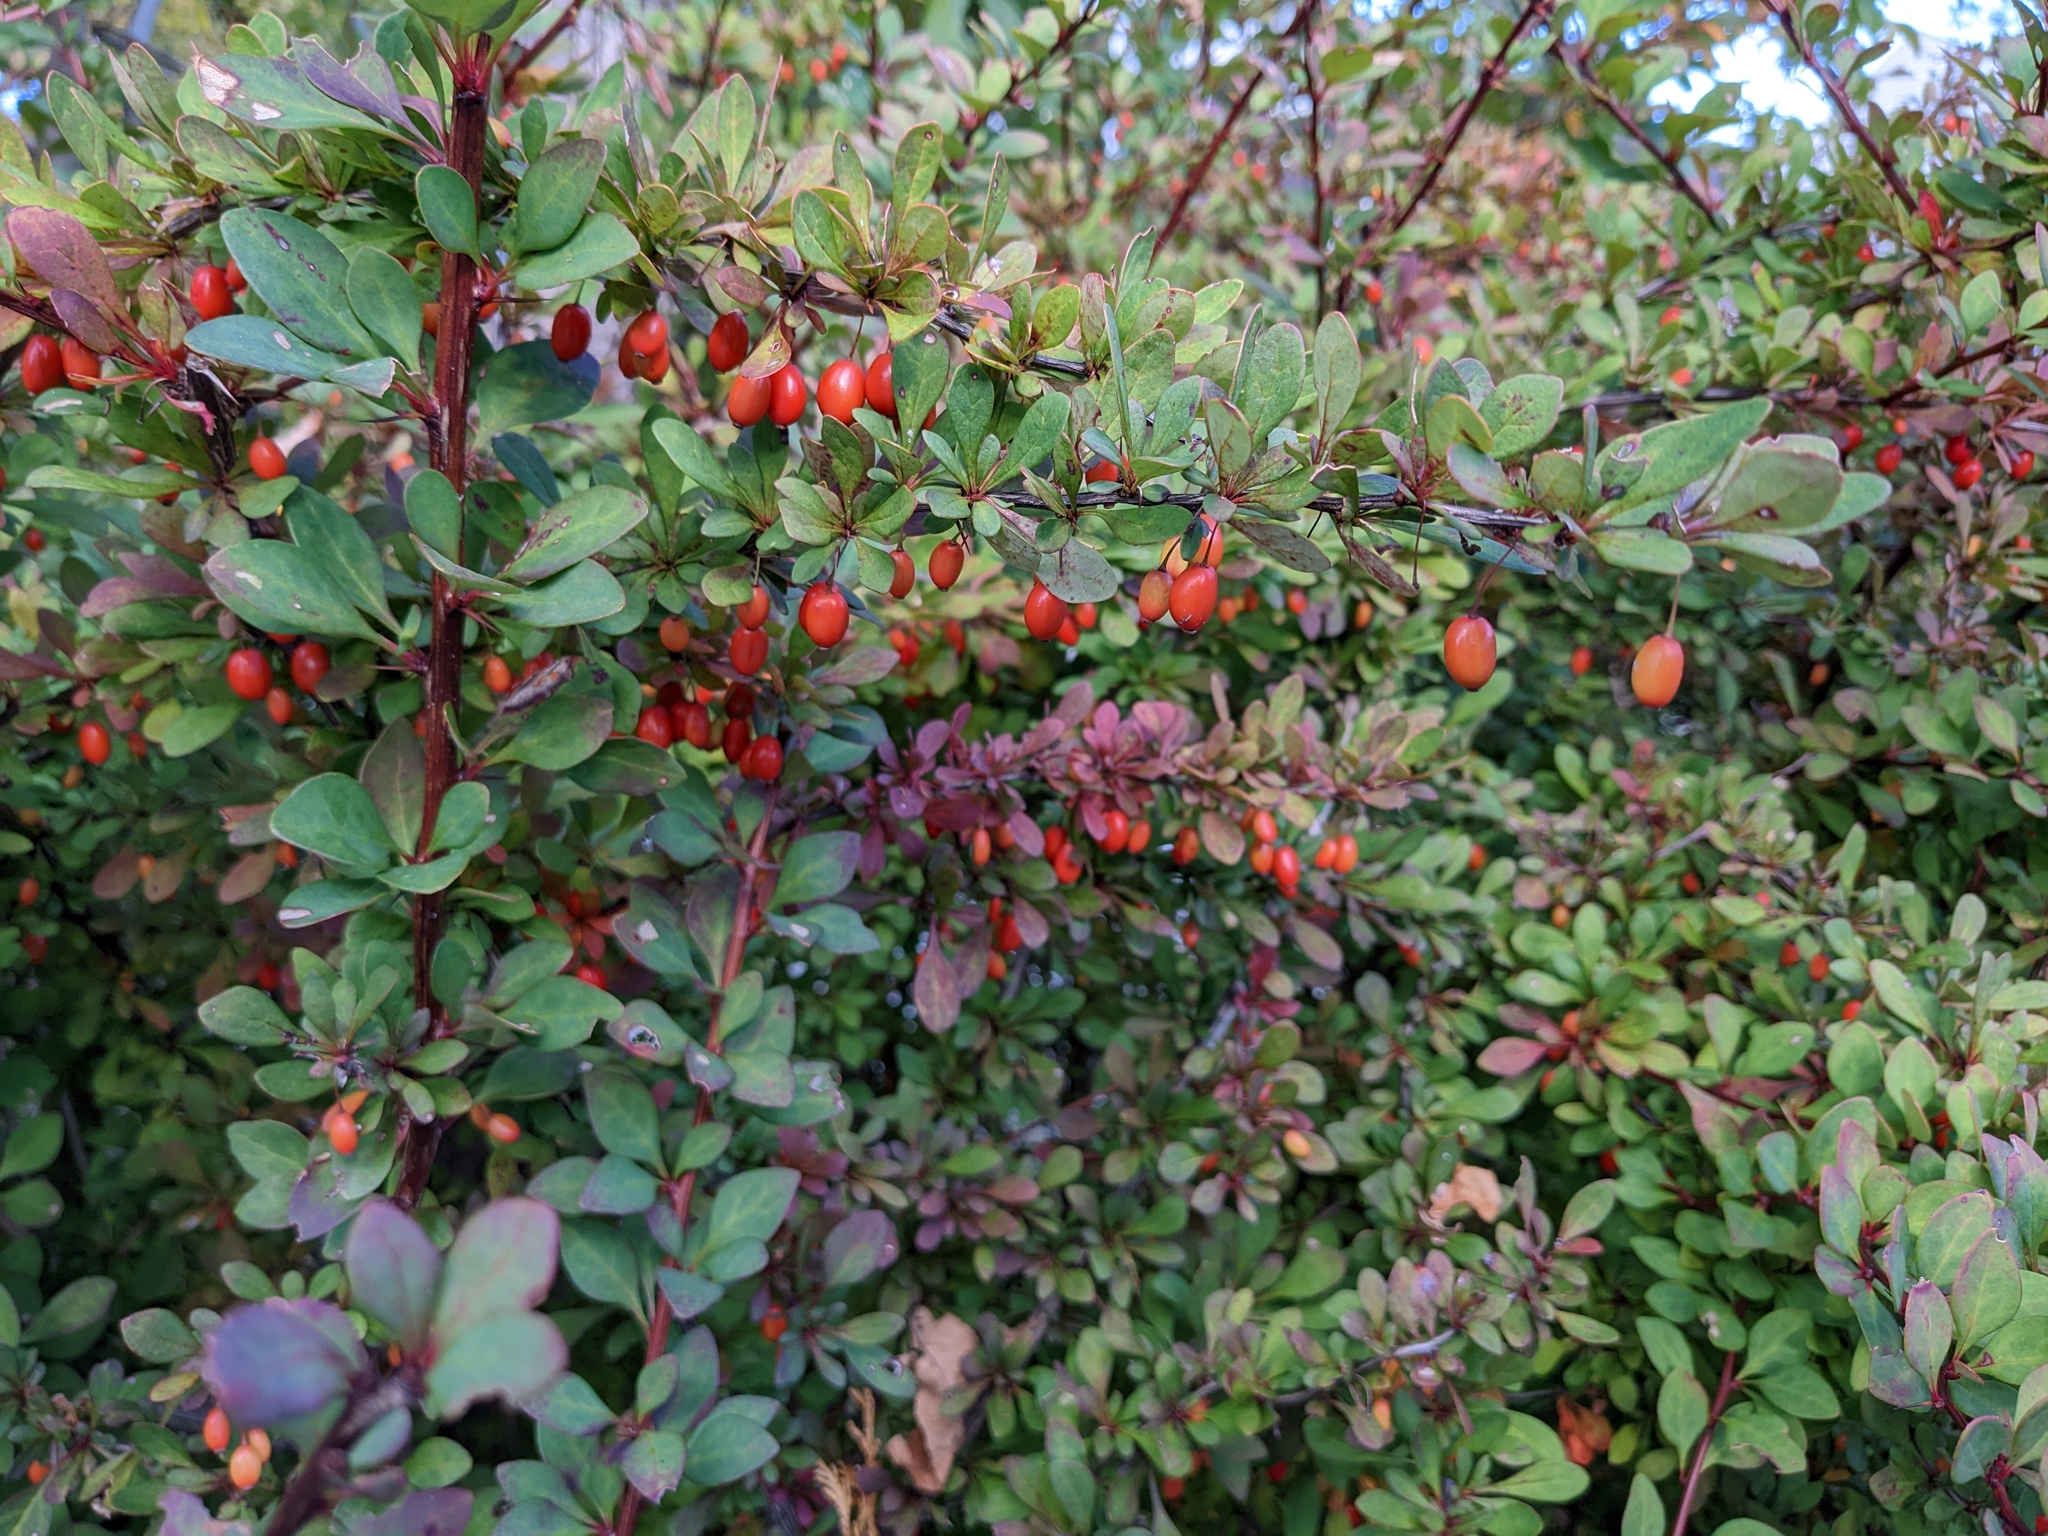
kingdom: Plantae
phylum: Tracheophyta
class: Magnoliopsida
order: Ranunculales
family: Berberidaceae
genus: Berberis
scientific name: Berberis thunbergii
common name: Japanese barberry
